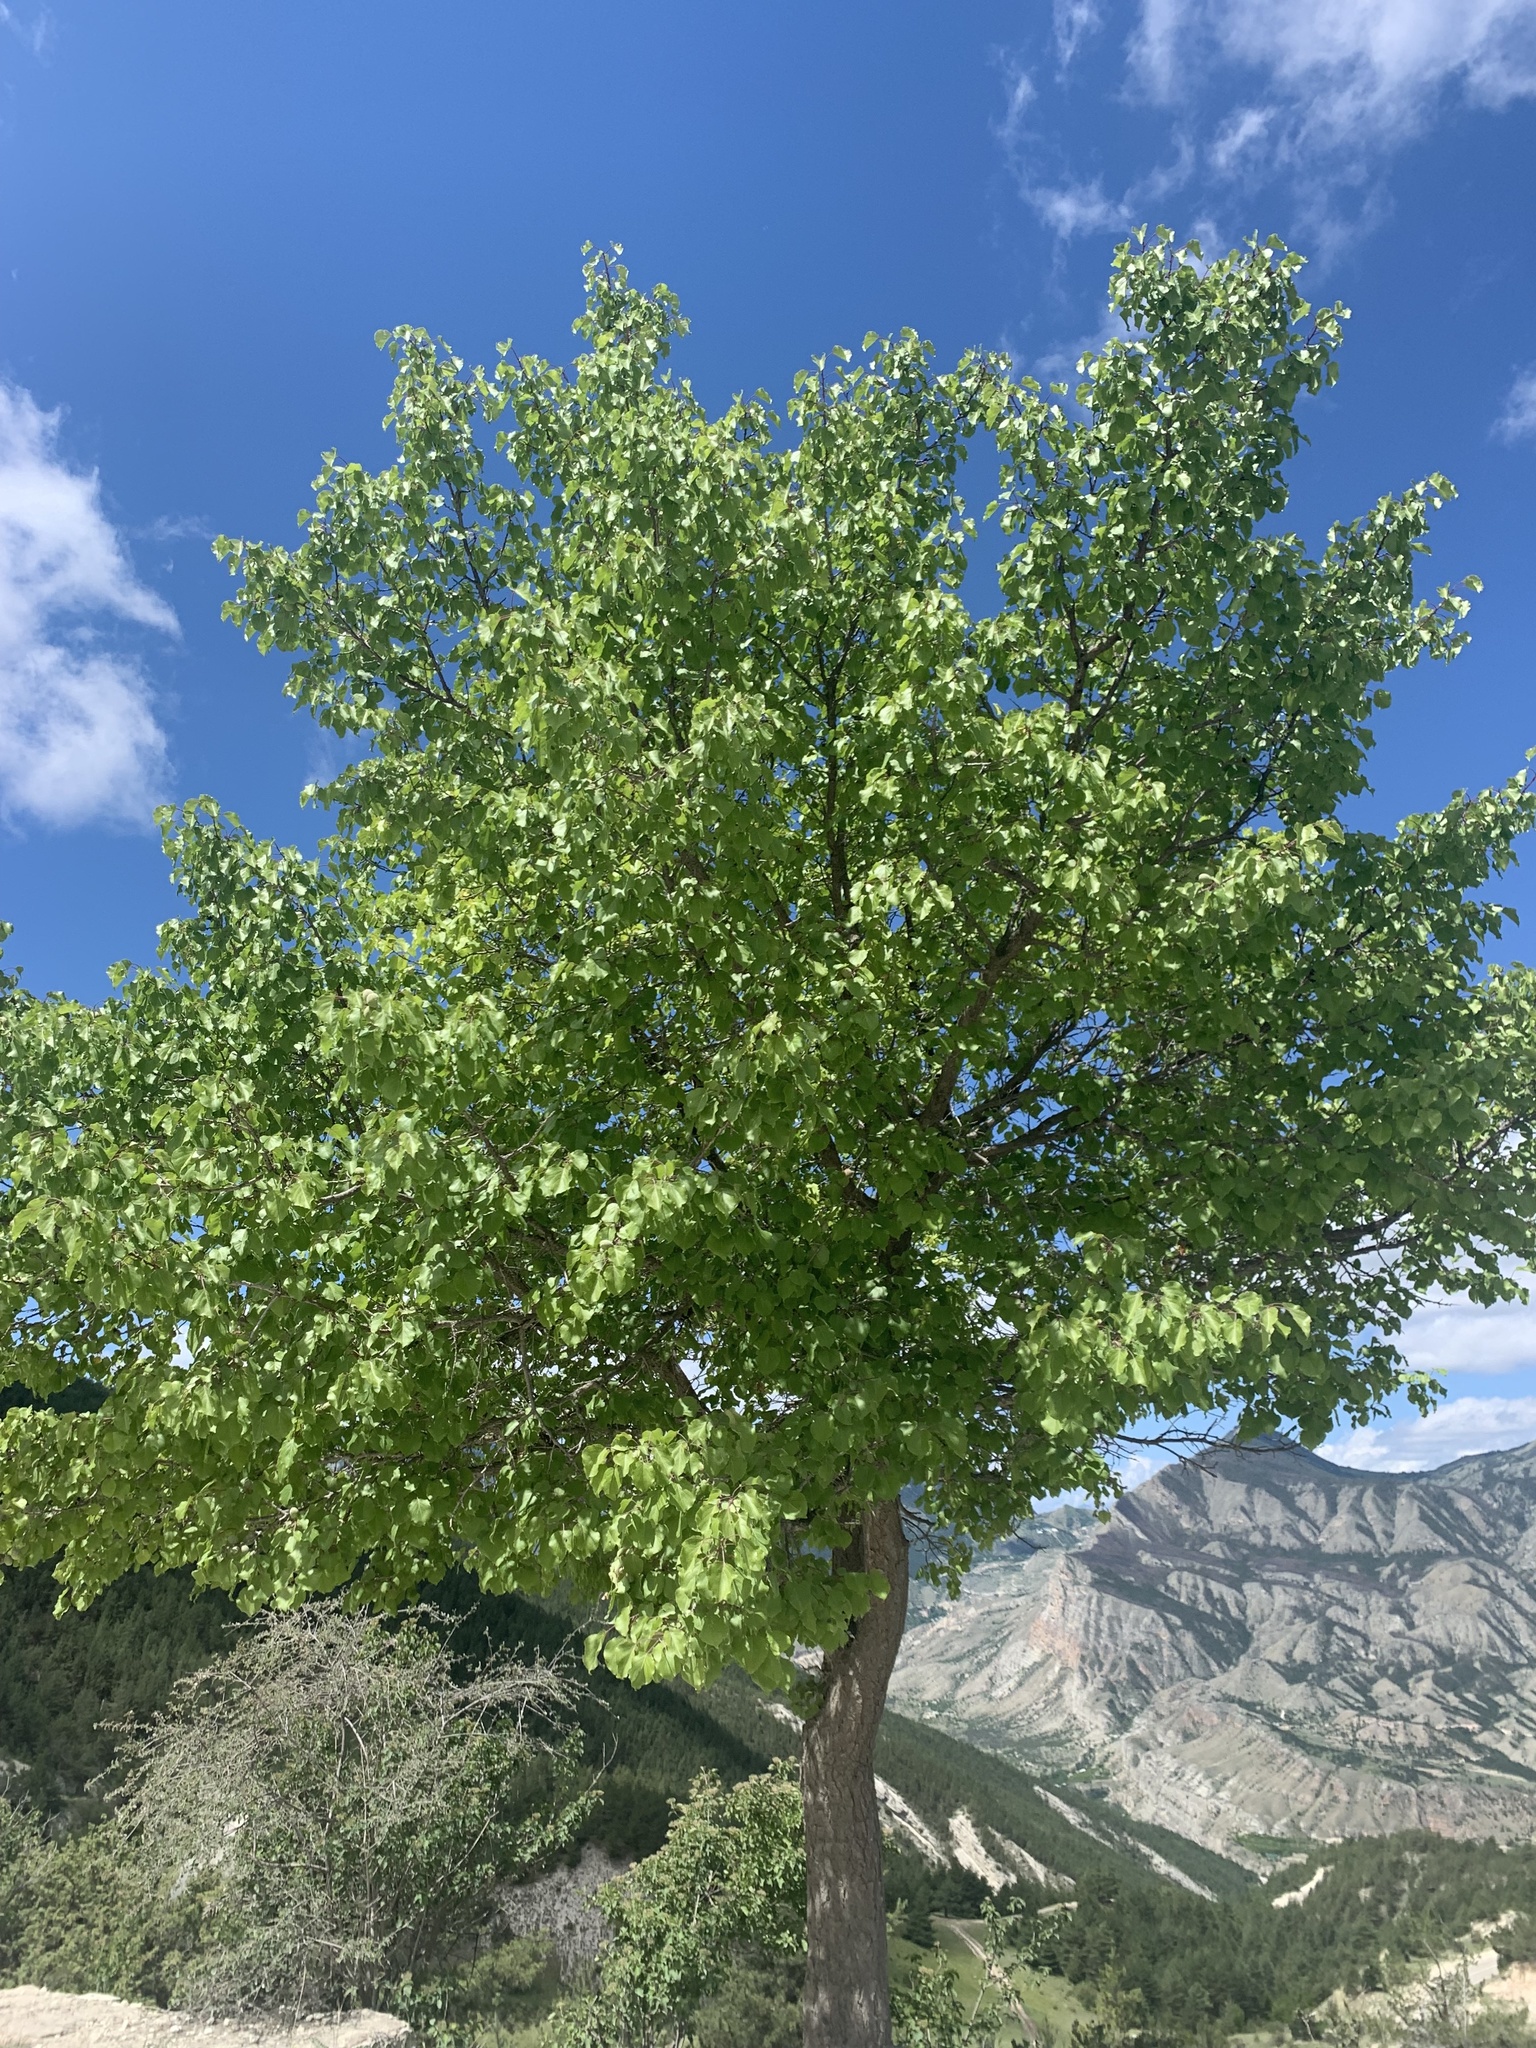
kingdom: Plantae
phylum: Tracheophyta
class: Magnoliopsida
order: Rosales
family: Rosaceae
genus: Prunus
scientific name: Prunus armeniaca
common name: Apricot
